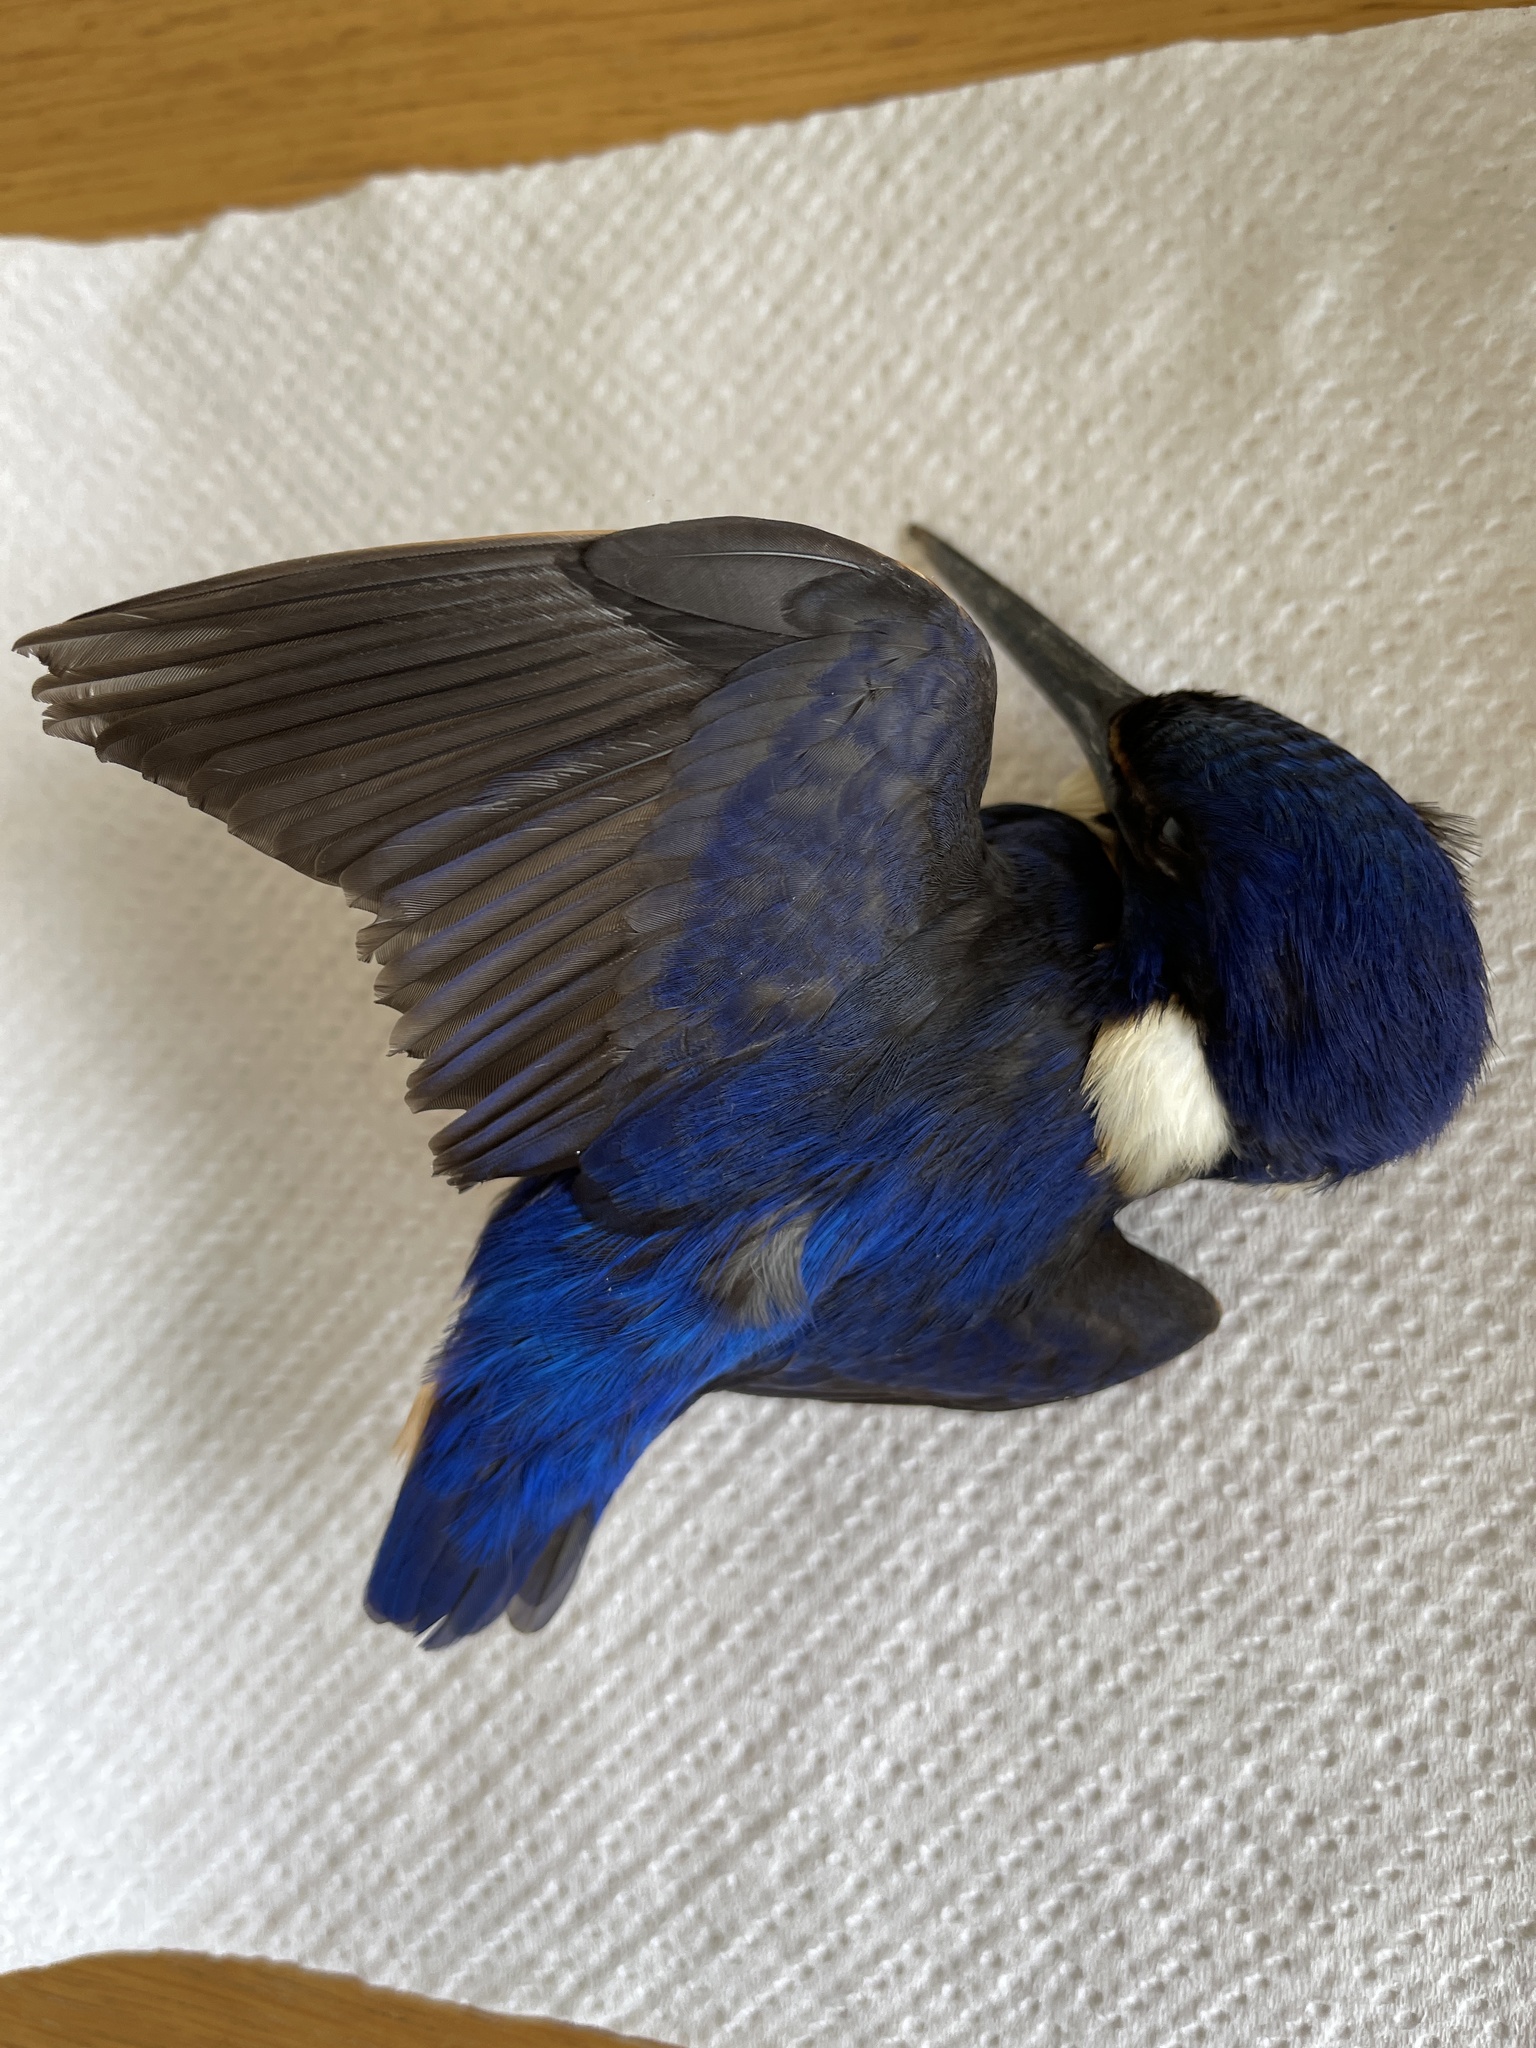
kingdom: Animalia
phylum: Chordata
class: Aves
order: Coraciiformes
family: Alcedinidae
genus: Ceyx
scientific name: Ceyx azureus
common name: Azure kingfisher
